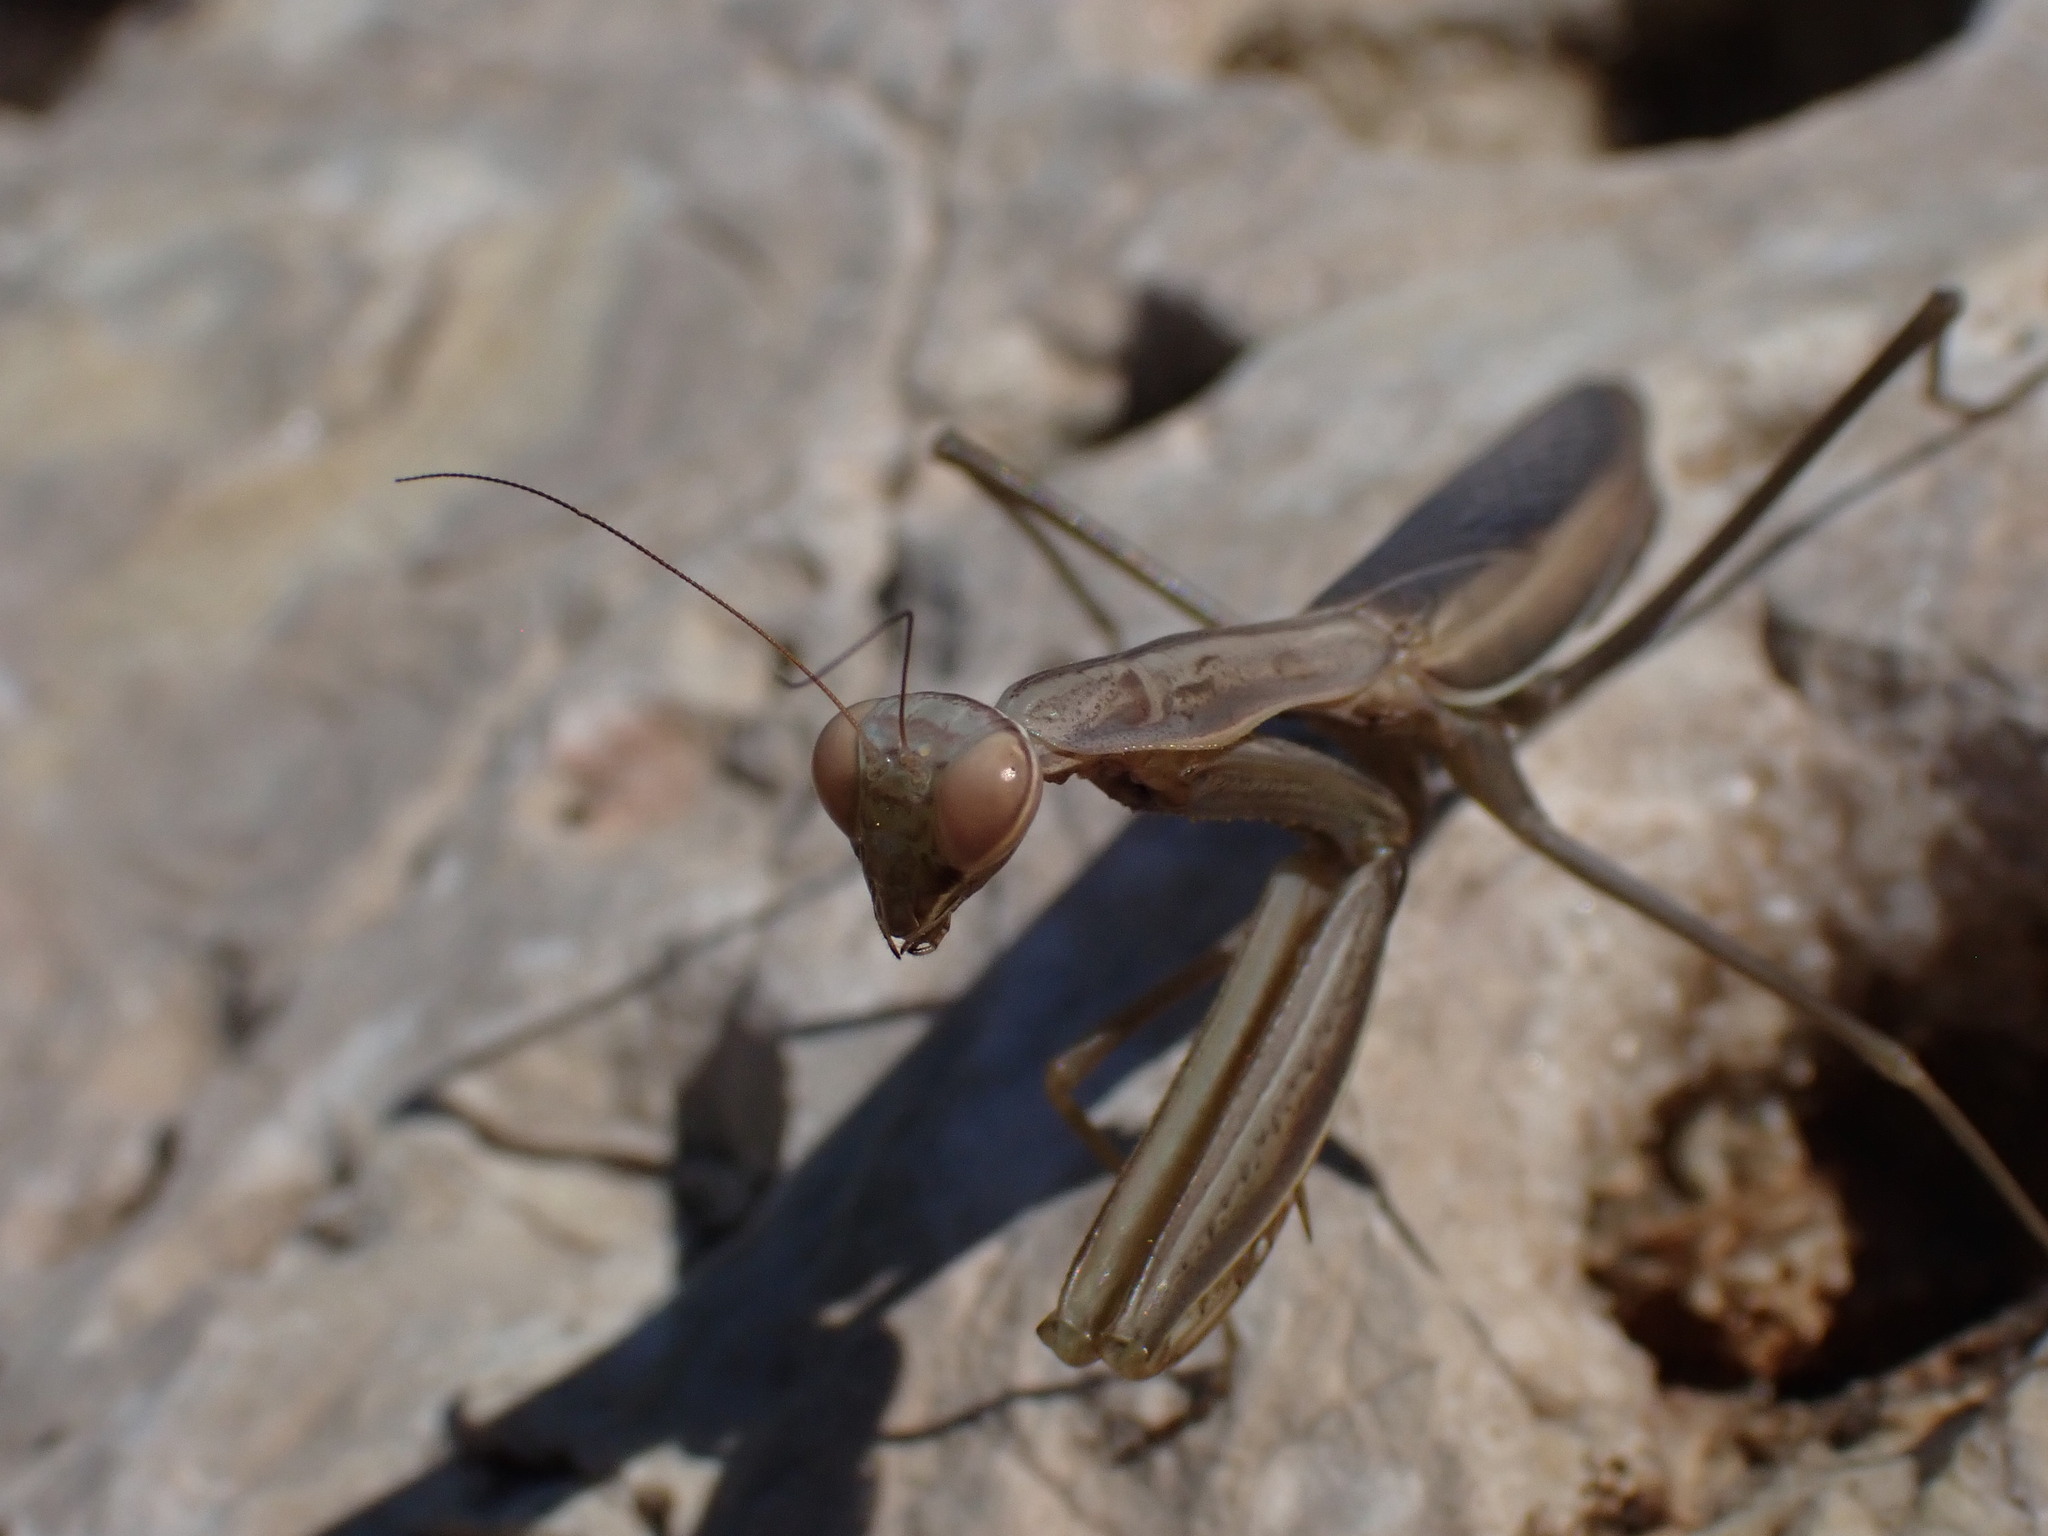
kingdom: Animalia
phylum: Arthropoda
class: Insecta
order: Mantodea
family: Mantidae
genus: Mantis
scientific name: Mantis religiosa
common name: Praying mantis
